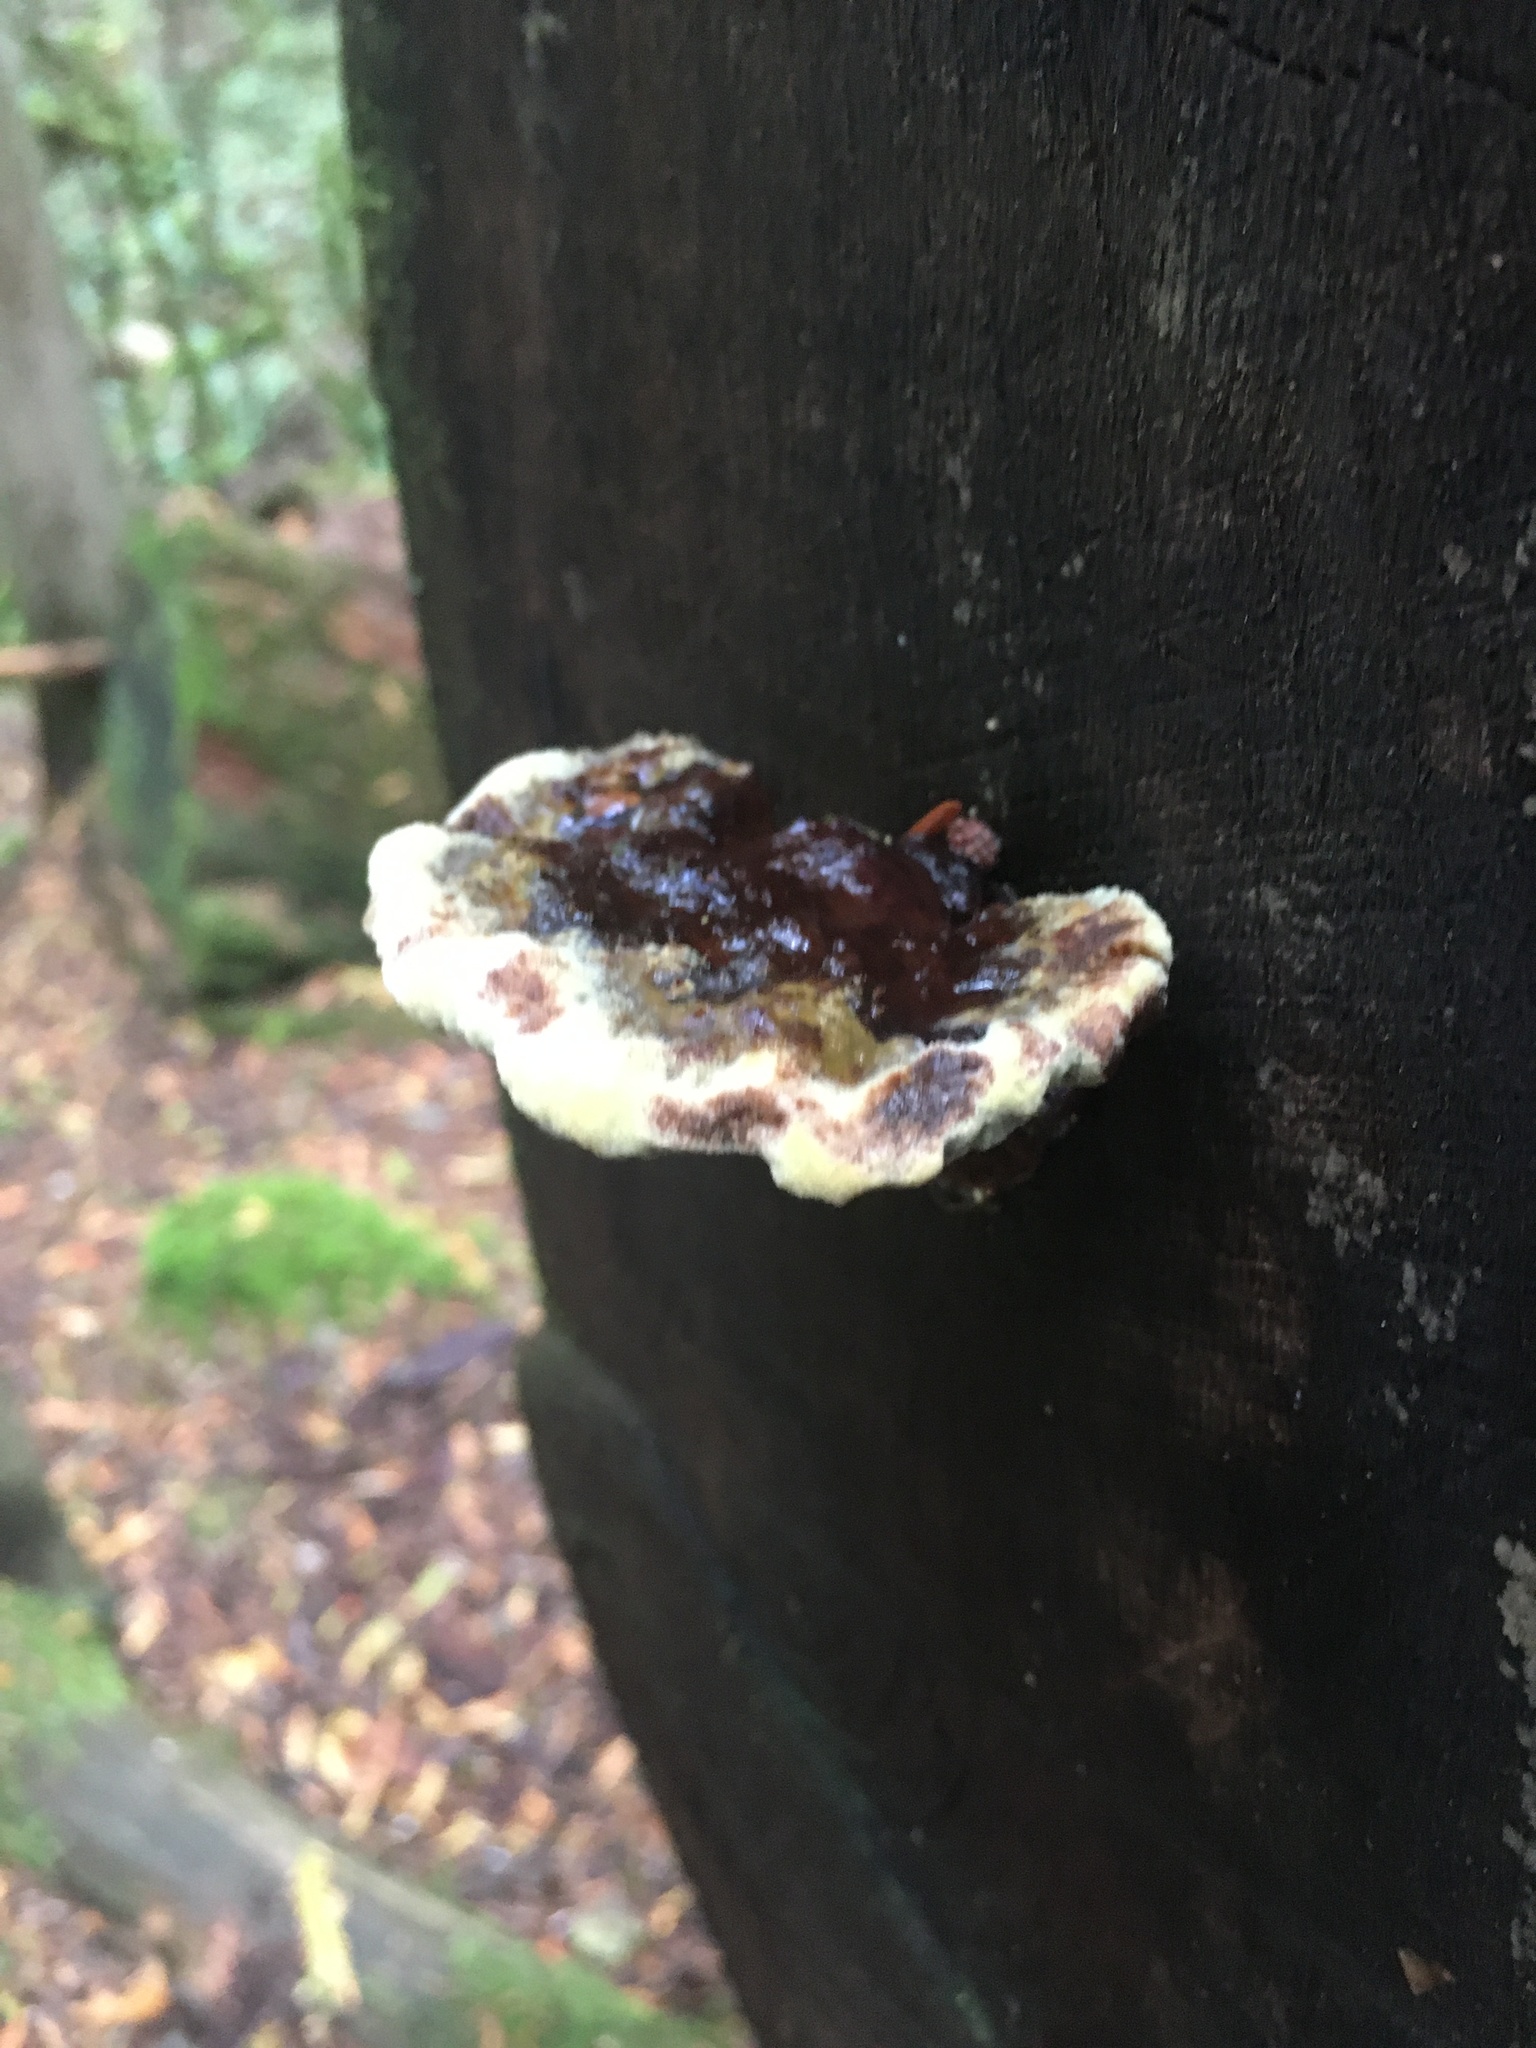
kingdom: Fungi
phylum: Basidiomycota
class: Agaricomycetes
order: Polyporales
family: Laetiporaceae
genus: Phaeolus
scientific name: Phaeolus schweinitzii
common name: Dyer's mazegill
